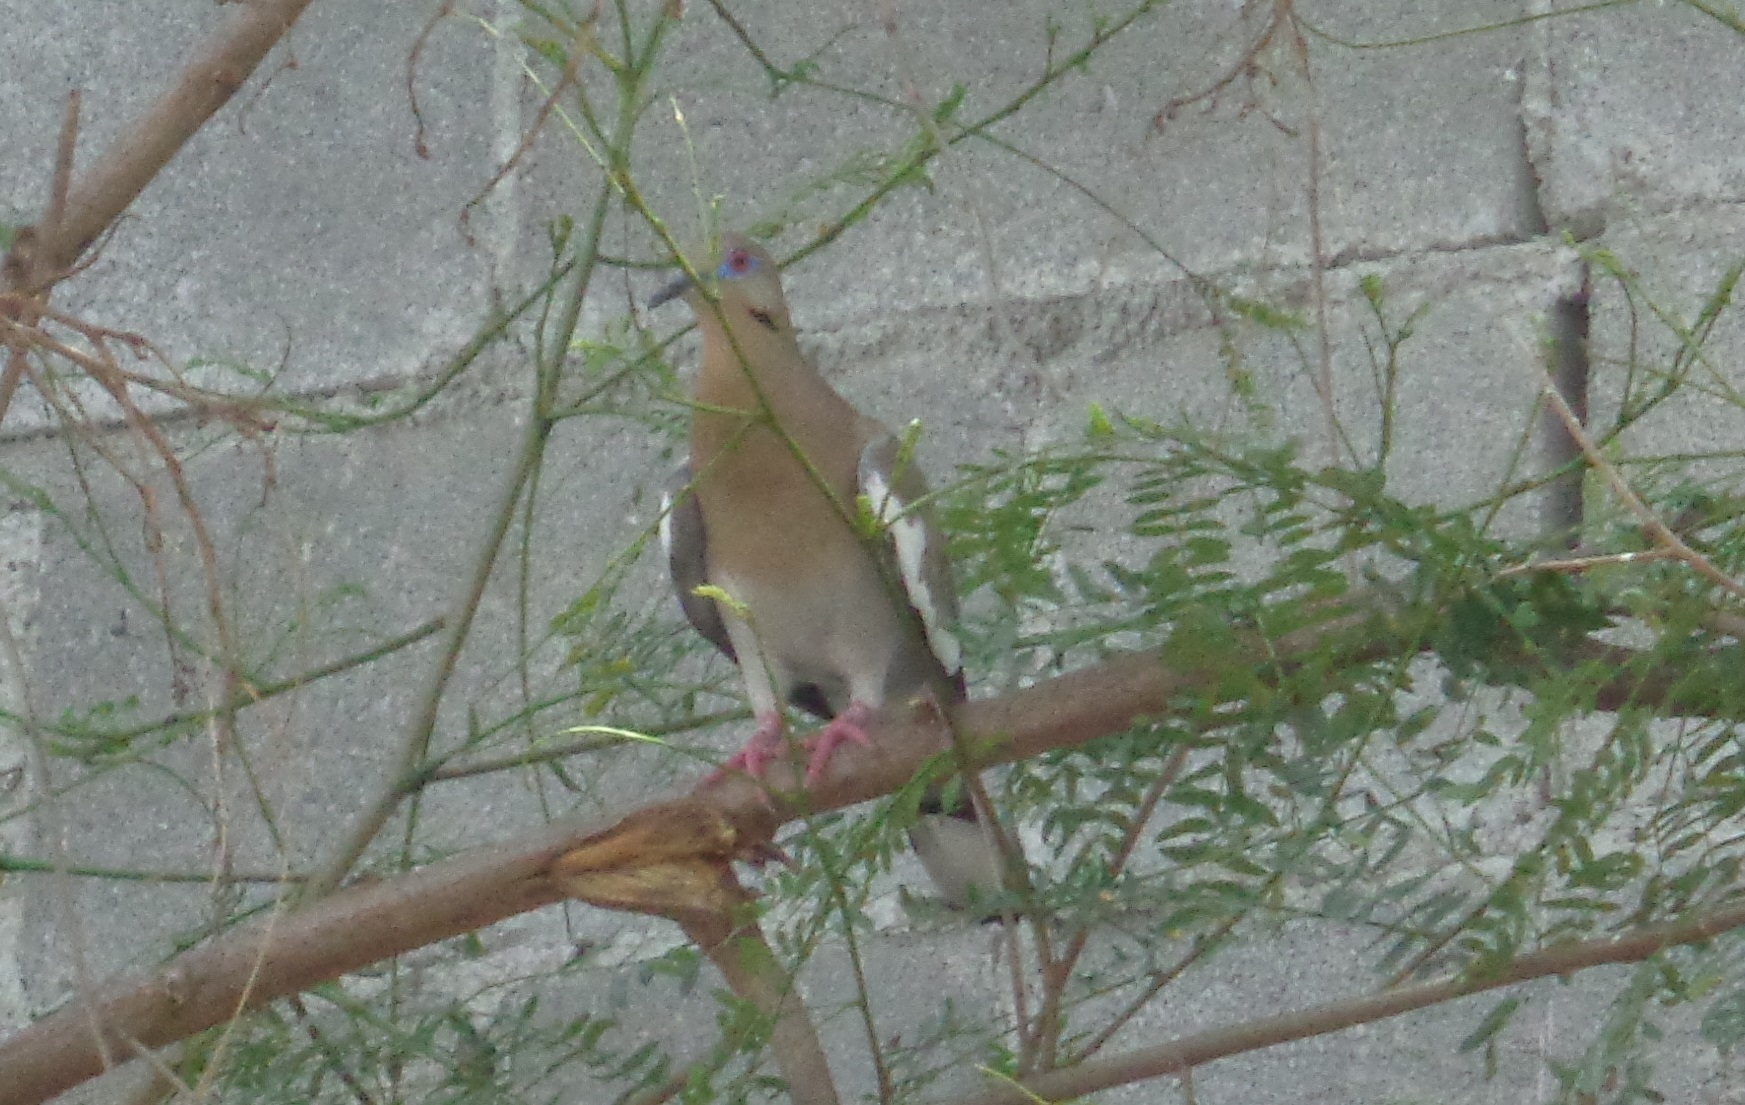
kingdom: Animalia
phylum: Chordata
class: Aves
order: Columbiformes
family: Columbidae
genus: Zenaida
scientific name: Zenaida asiatica
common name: White-winged dove
